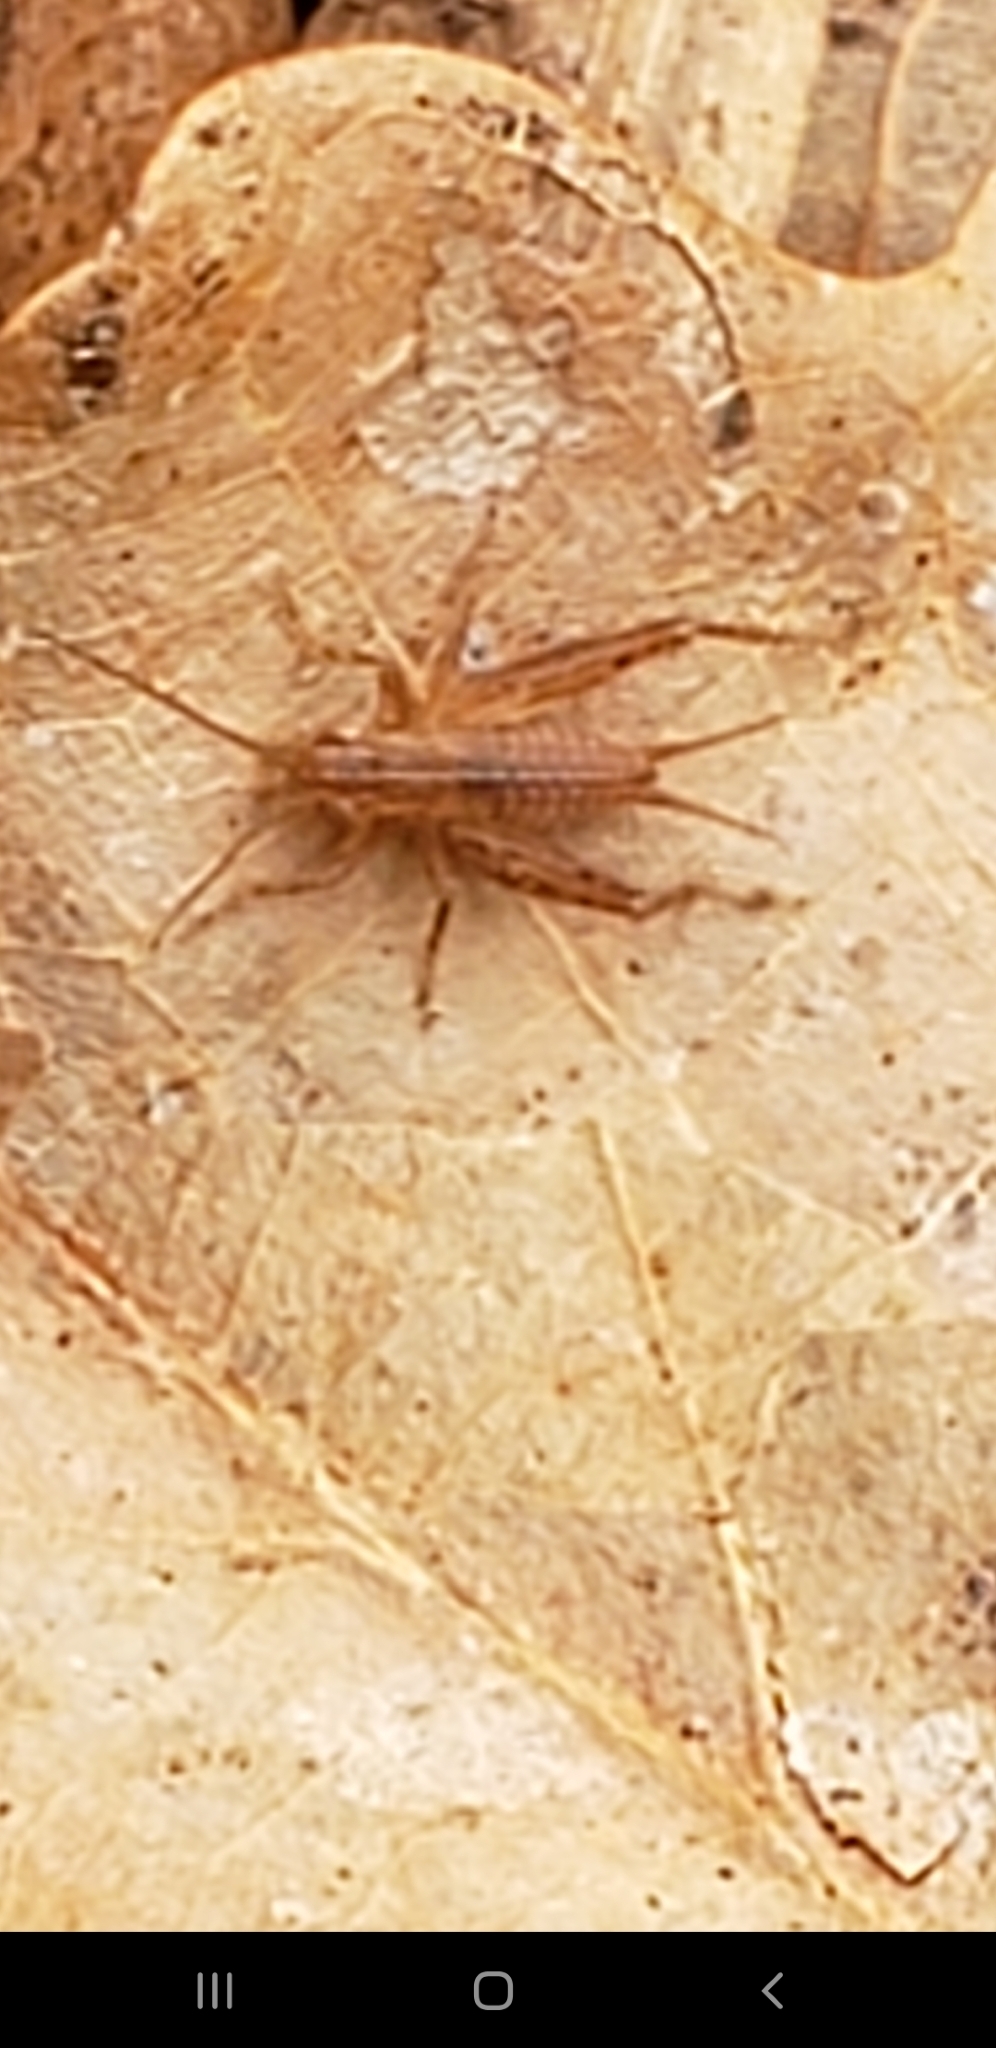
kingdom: Animalia
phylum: Arthropoda
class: Insecta
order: Orthoptera
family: Trigonidiidae
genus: Falcicula
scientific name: Falcicula hebardi
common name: Hebard's bush cricket
